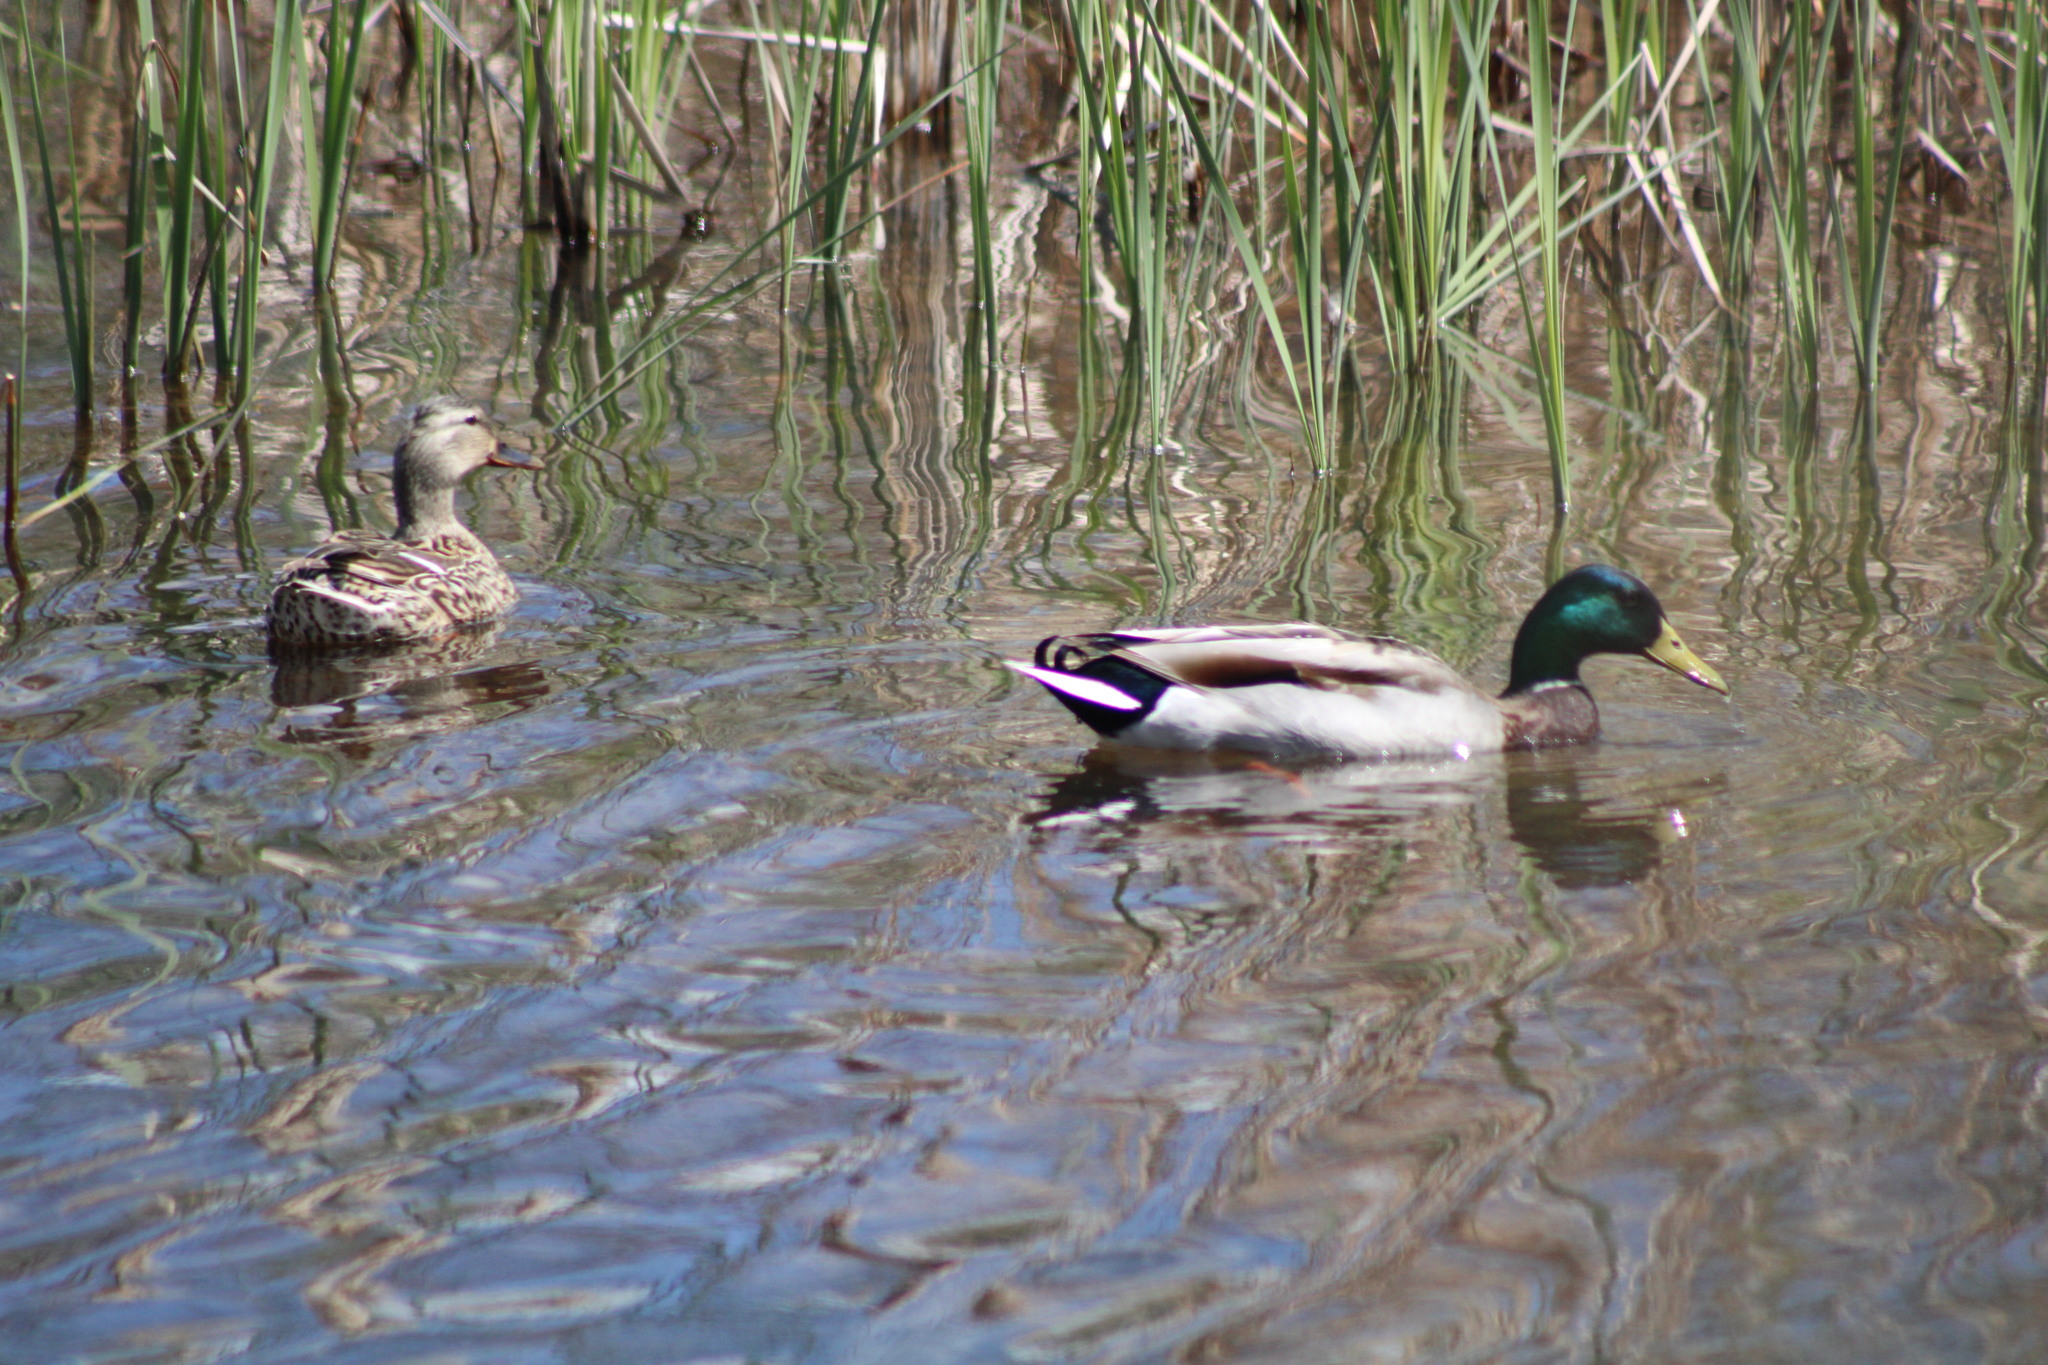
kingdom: Animalia
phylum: Chordata
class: Aves
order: Anseriformes
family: Anatidae
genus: Anas
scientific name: Anas platyrhynchos
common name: Mallard
